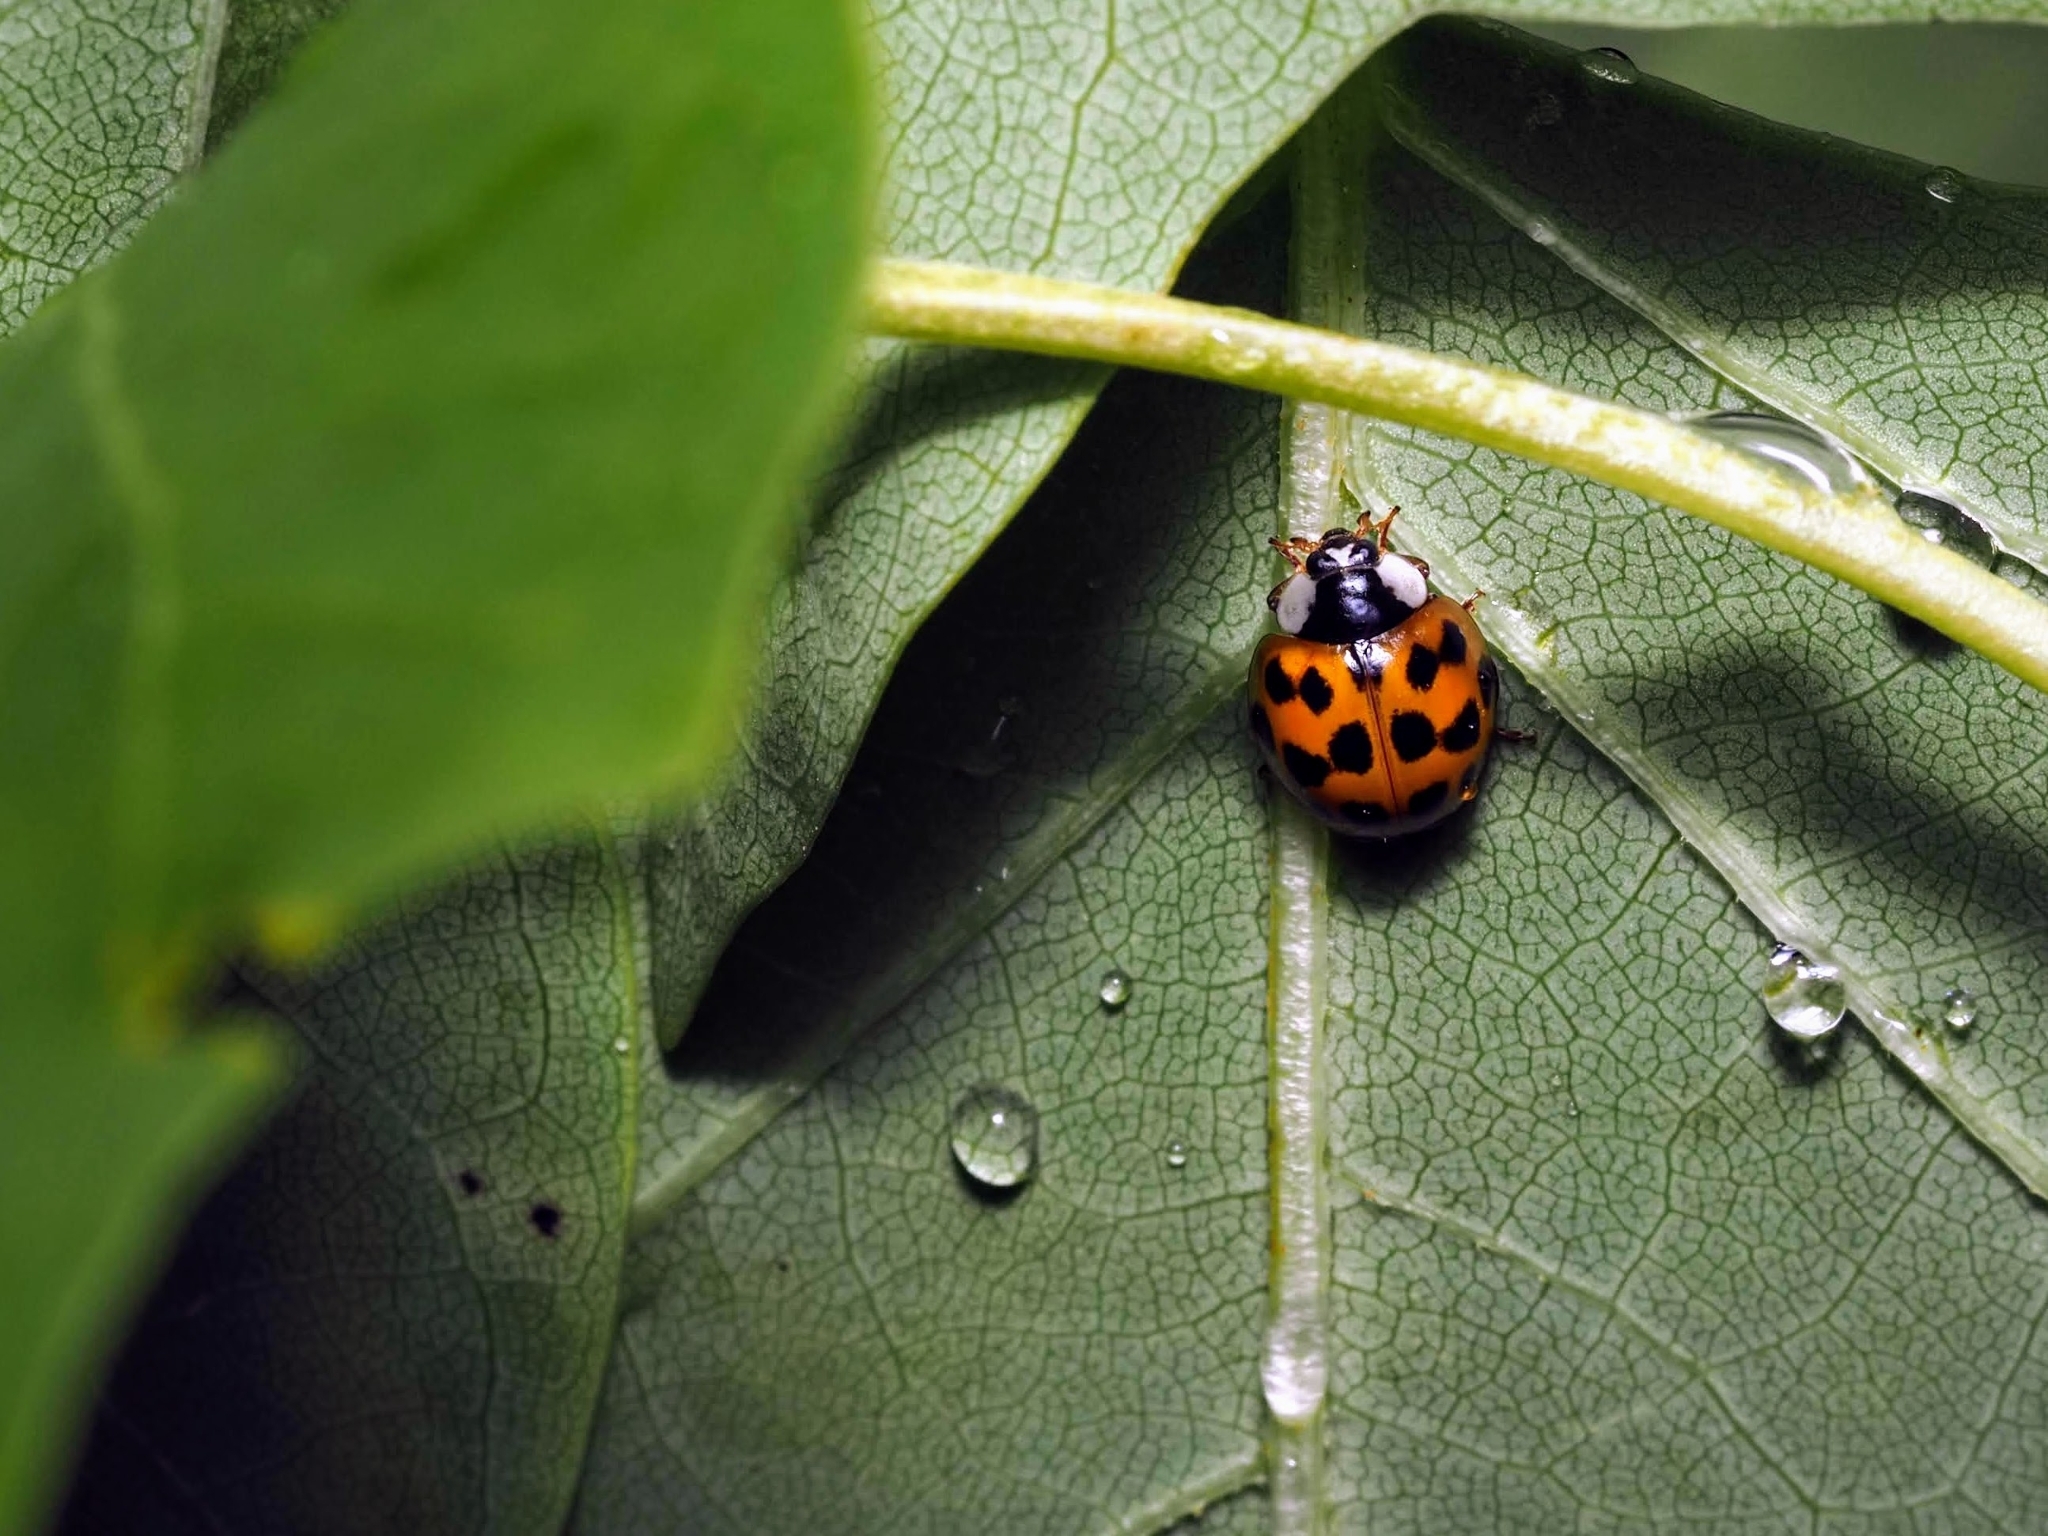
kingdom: Animalia
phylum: Arthropoda
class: Insecta
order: Coleoptera
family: Coccinellidae
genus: Harmonia
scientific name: Harmonia axyridis
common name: Harlequin ladybird
